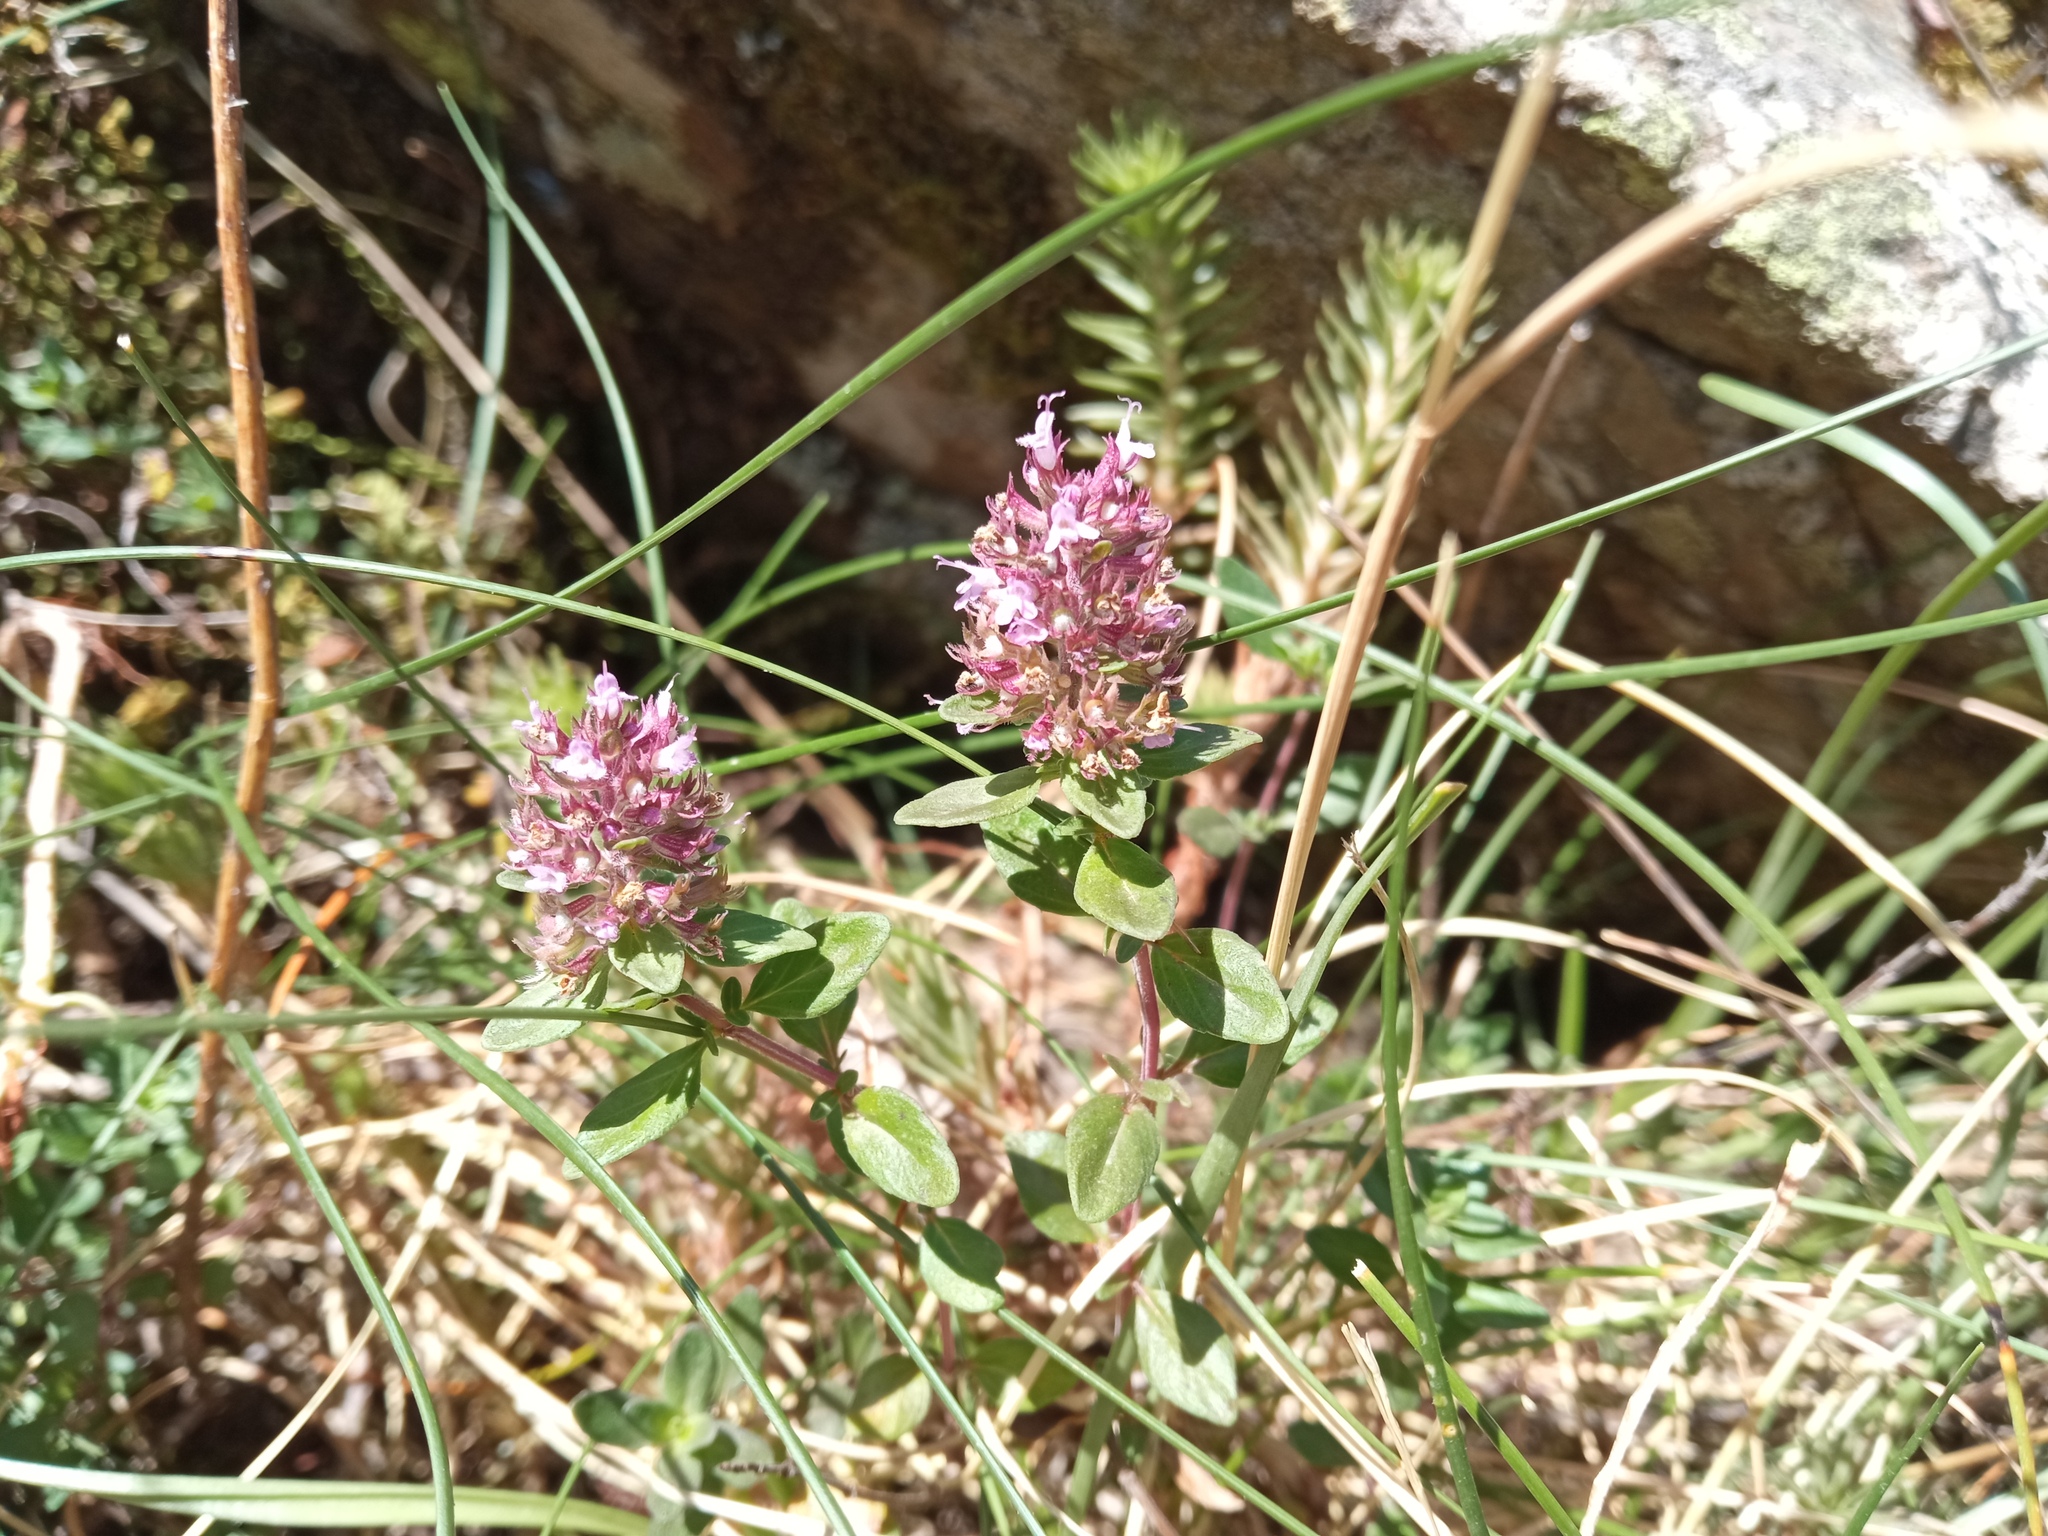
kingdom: Plantae
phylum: Tracheophyta
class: Magnoliopsida
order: Lamiales
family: Lamiaceae
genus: Thymus
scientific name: Thymus pulegioides
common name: Large thyme
